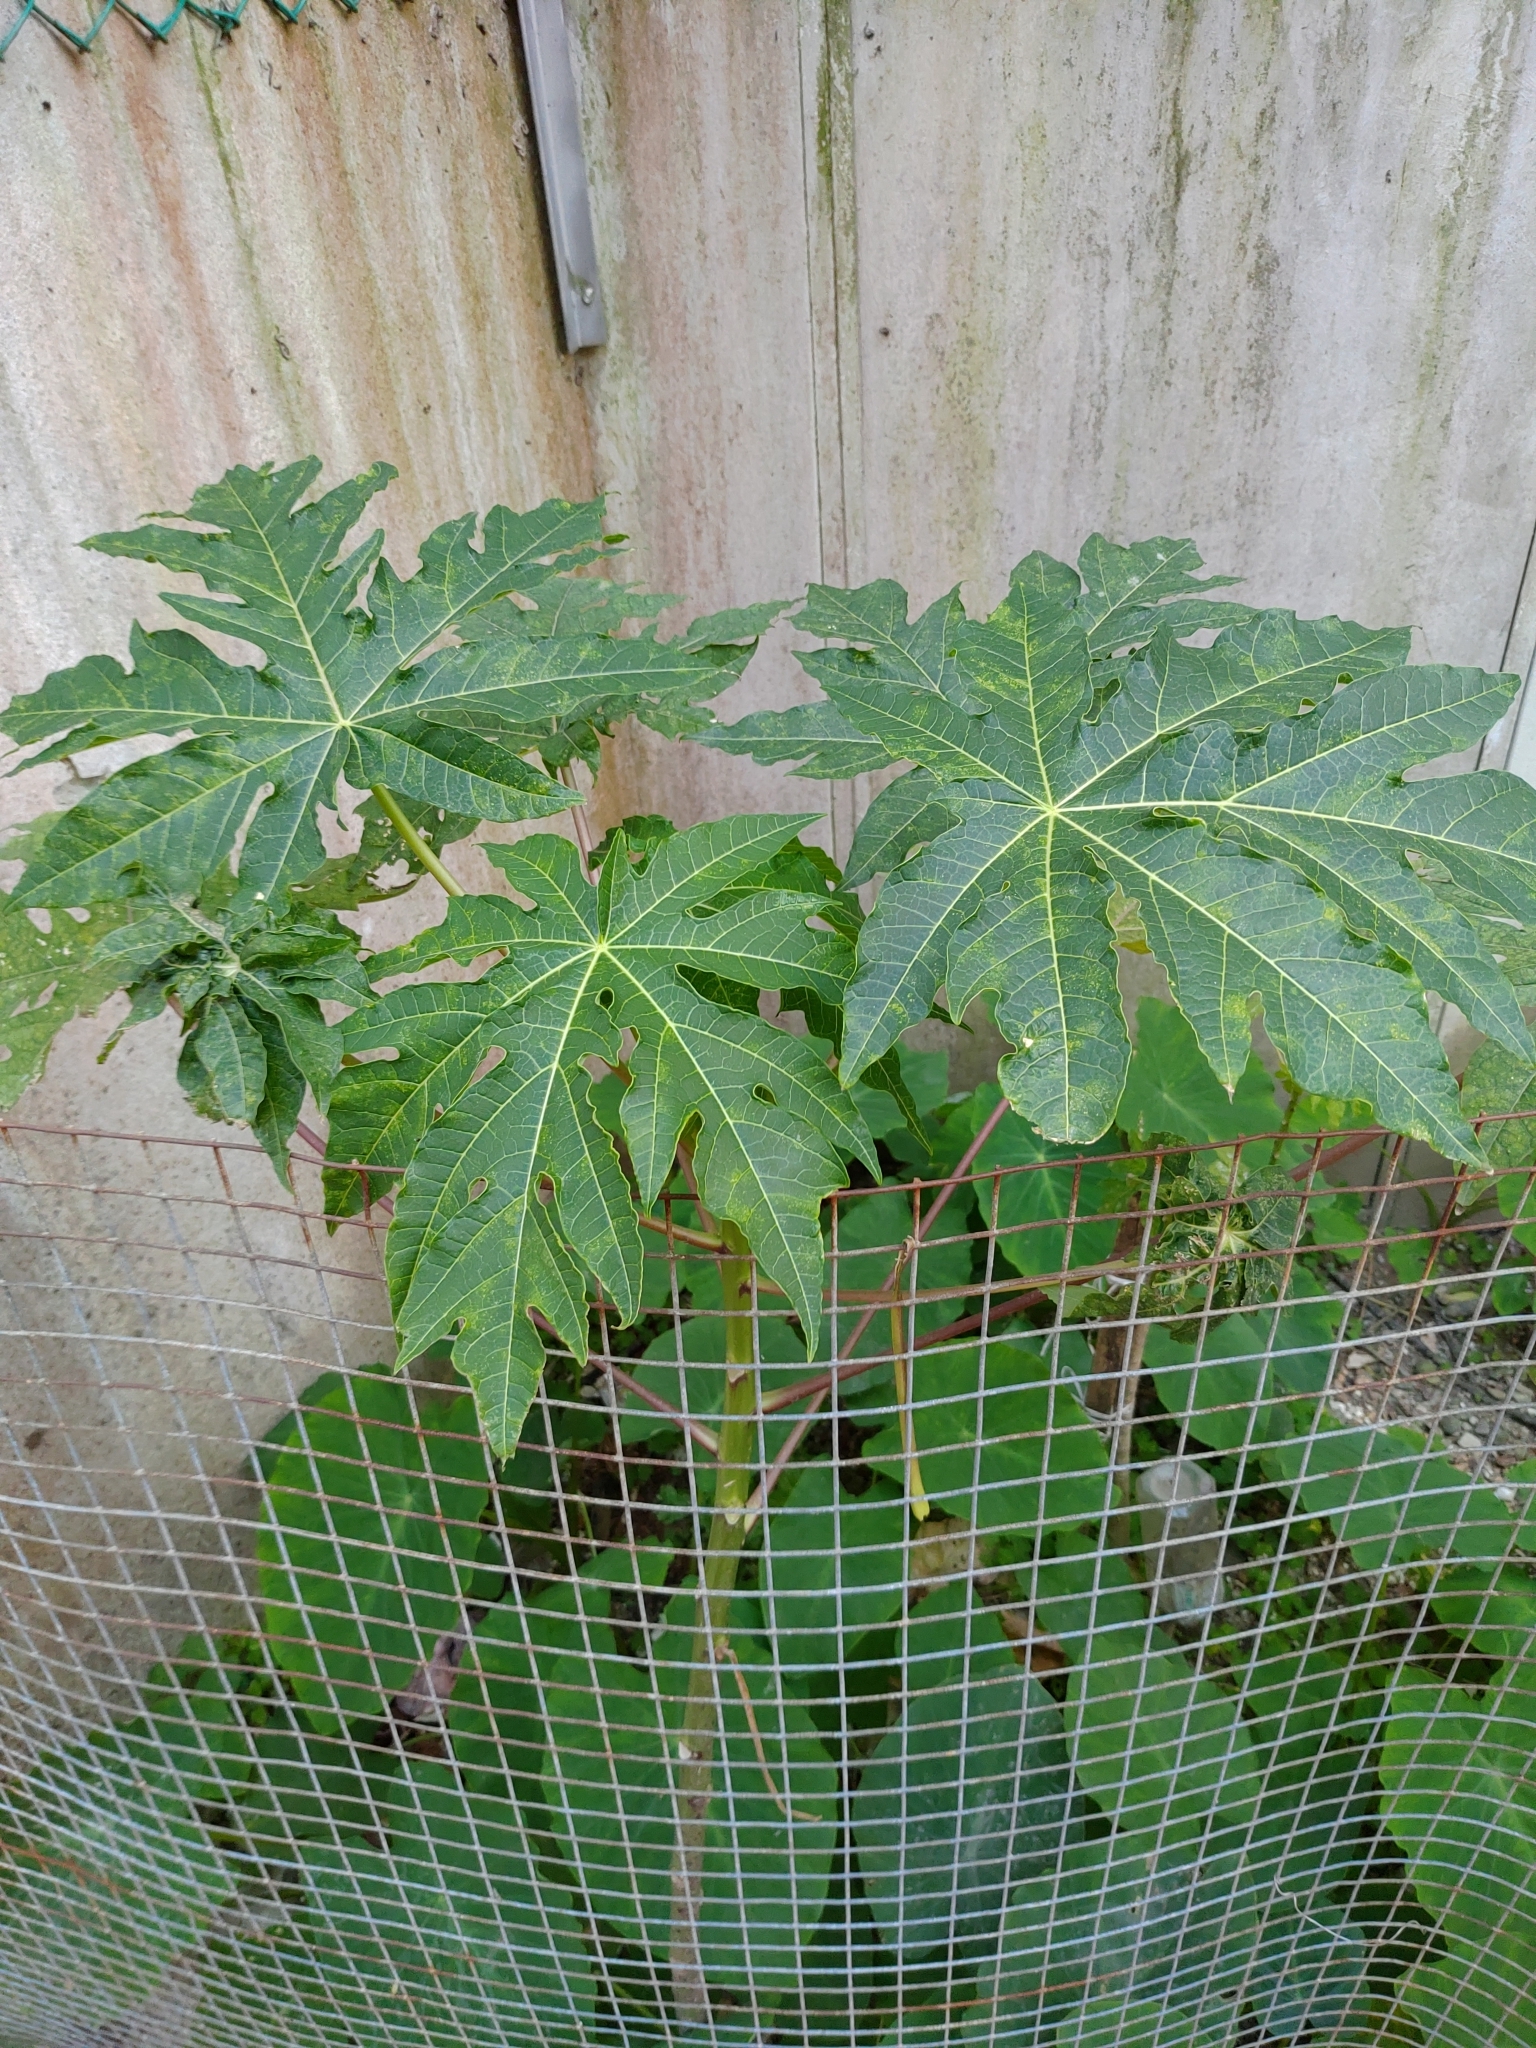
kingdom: Plantae
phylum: Tracheophyta
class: Magnoliopsida
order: Brassicales
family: Caricaceae
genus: Carica
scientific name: Carica papaya
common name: Papaya
